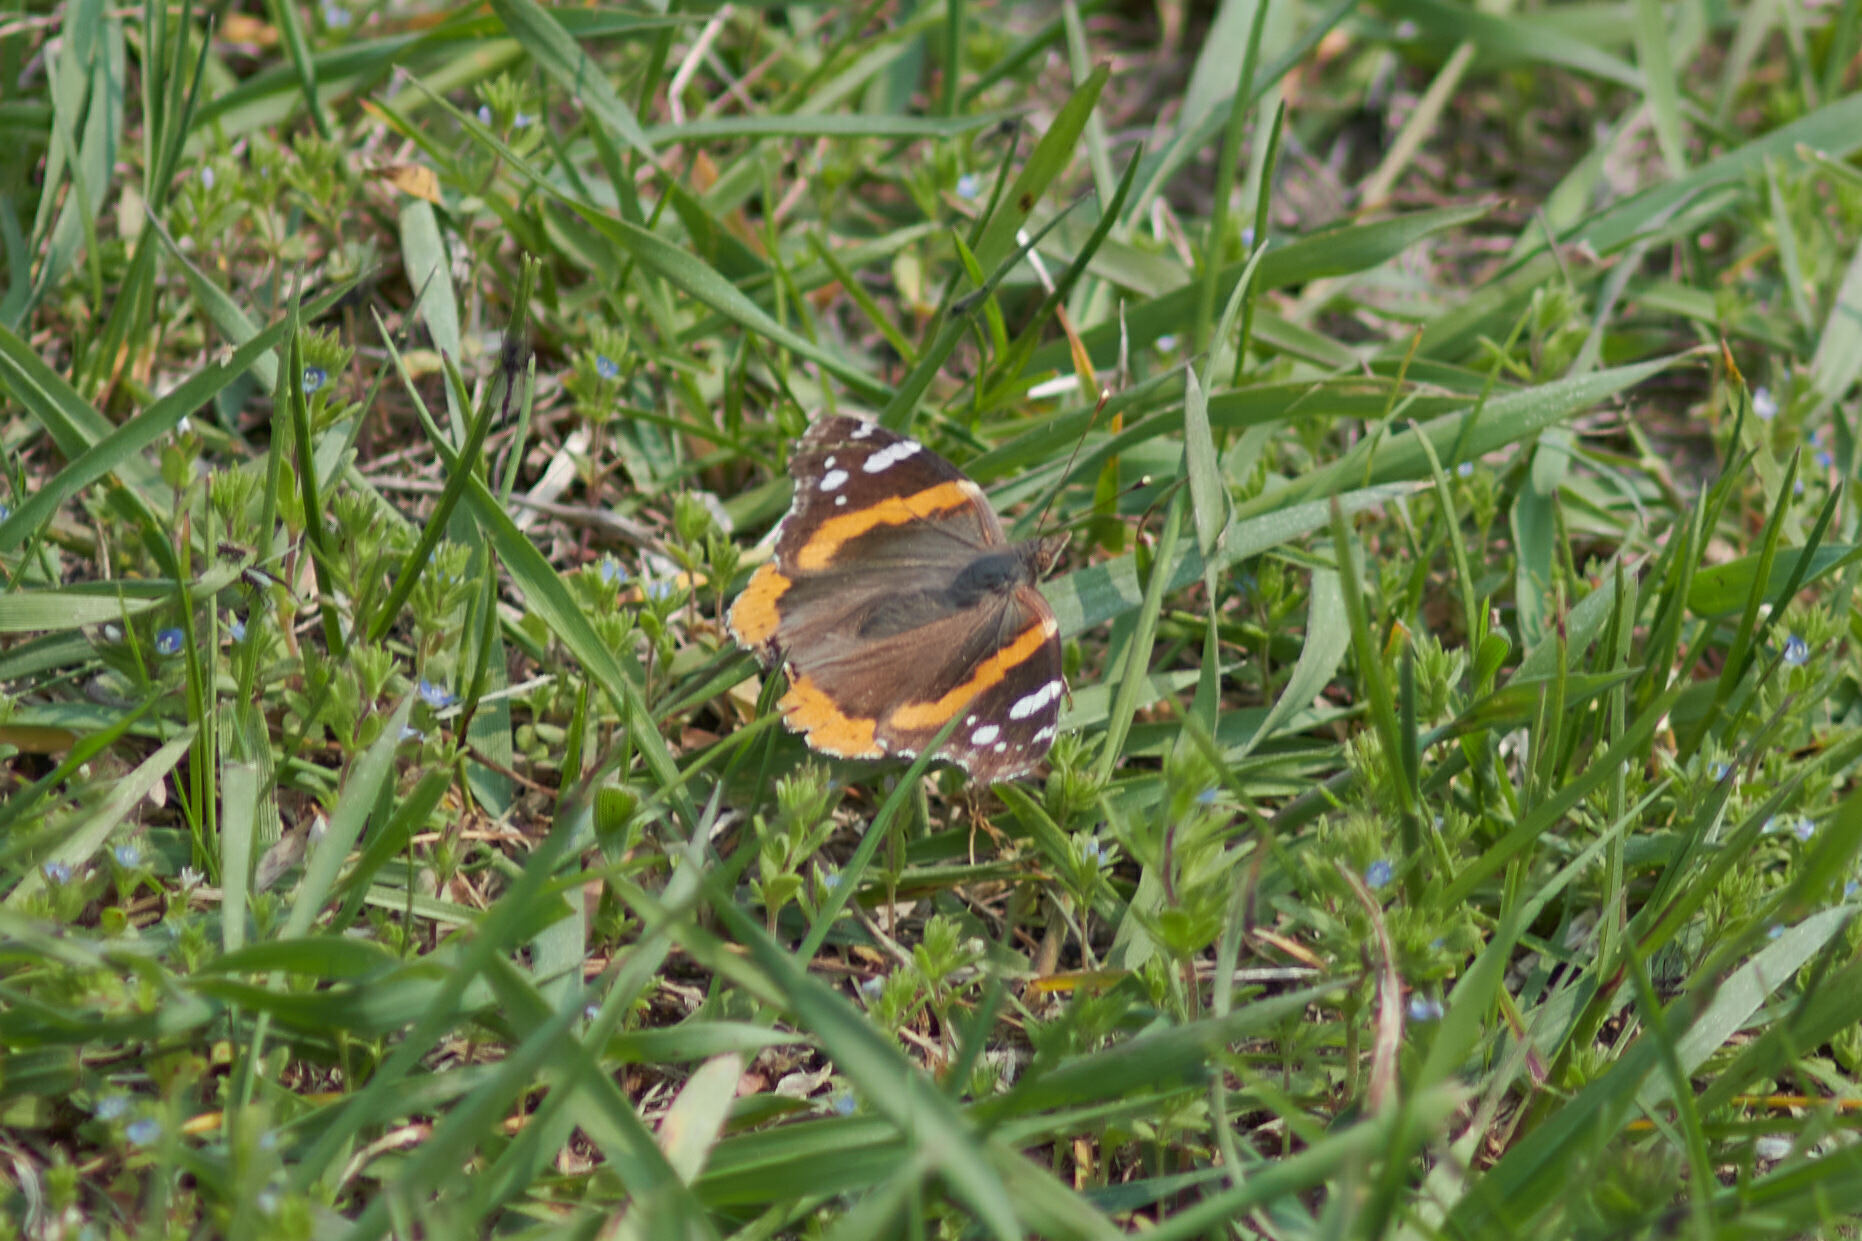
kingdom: Animalia
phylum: Arthropoda
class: Insecta
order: Lepidoptera
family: Nymphalidae
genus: Vanessa
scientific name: Vanessa atalanta
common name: Red admiral
